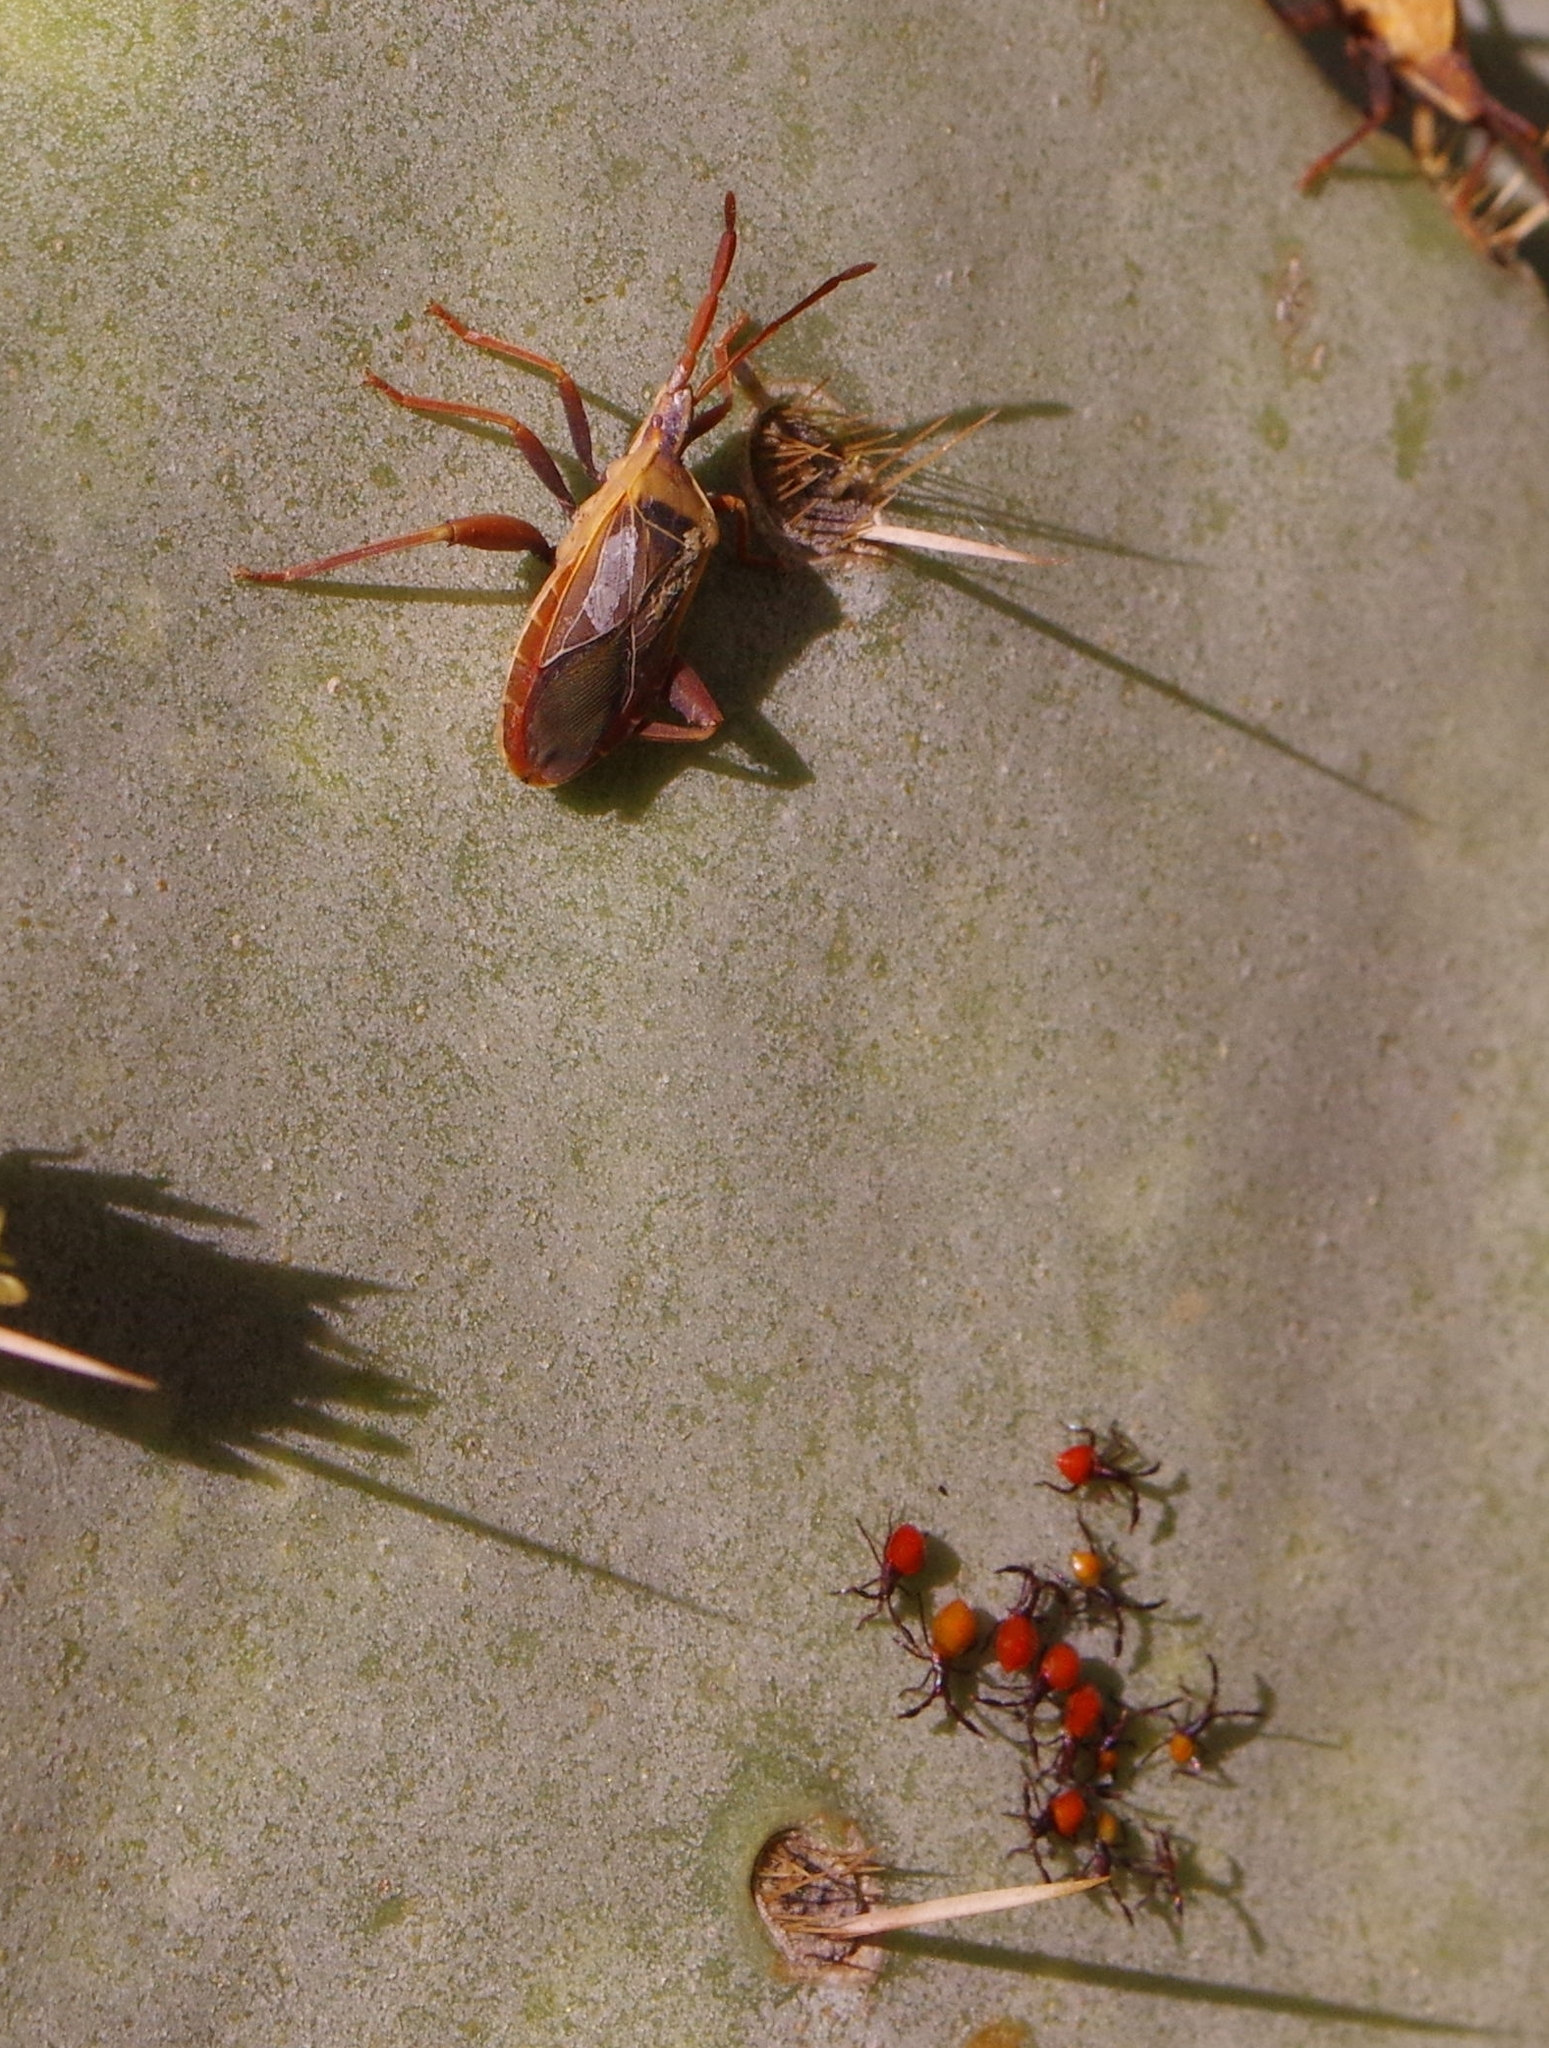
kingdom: Animalia
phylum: Arthropoda
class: Insecta
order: Hemiptera
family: Coreidae
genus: Chelinidea
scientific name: Chelinidea vittiger
